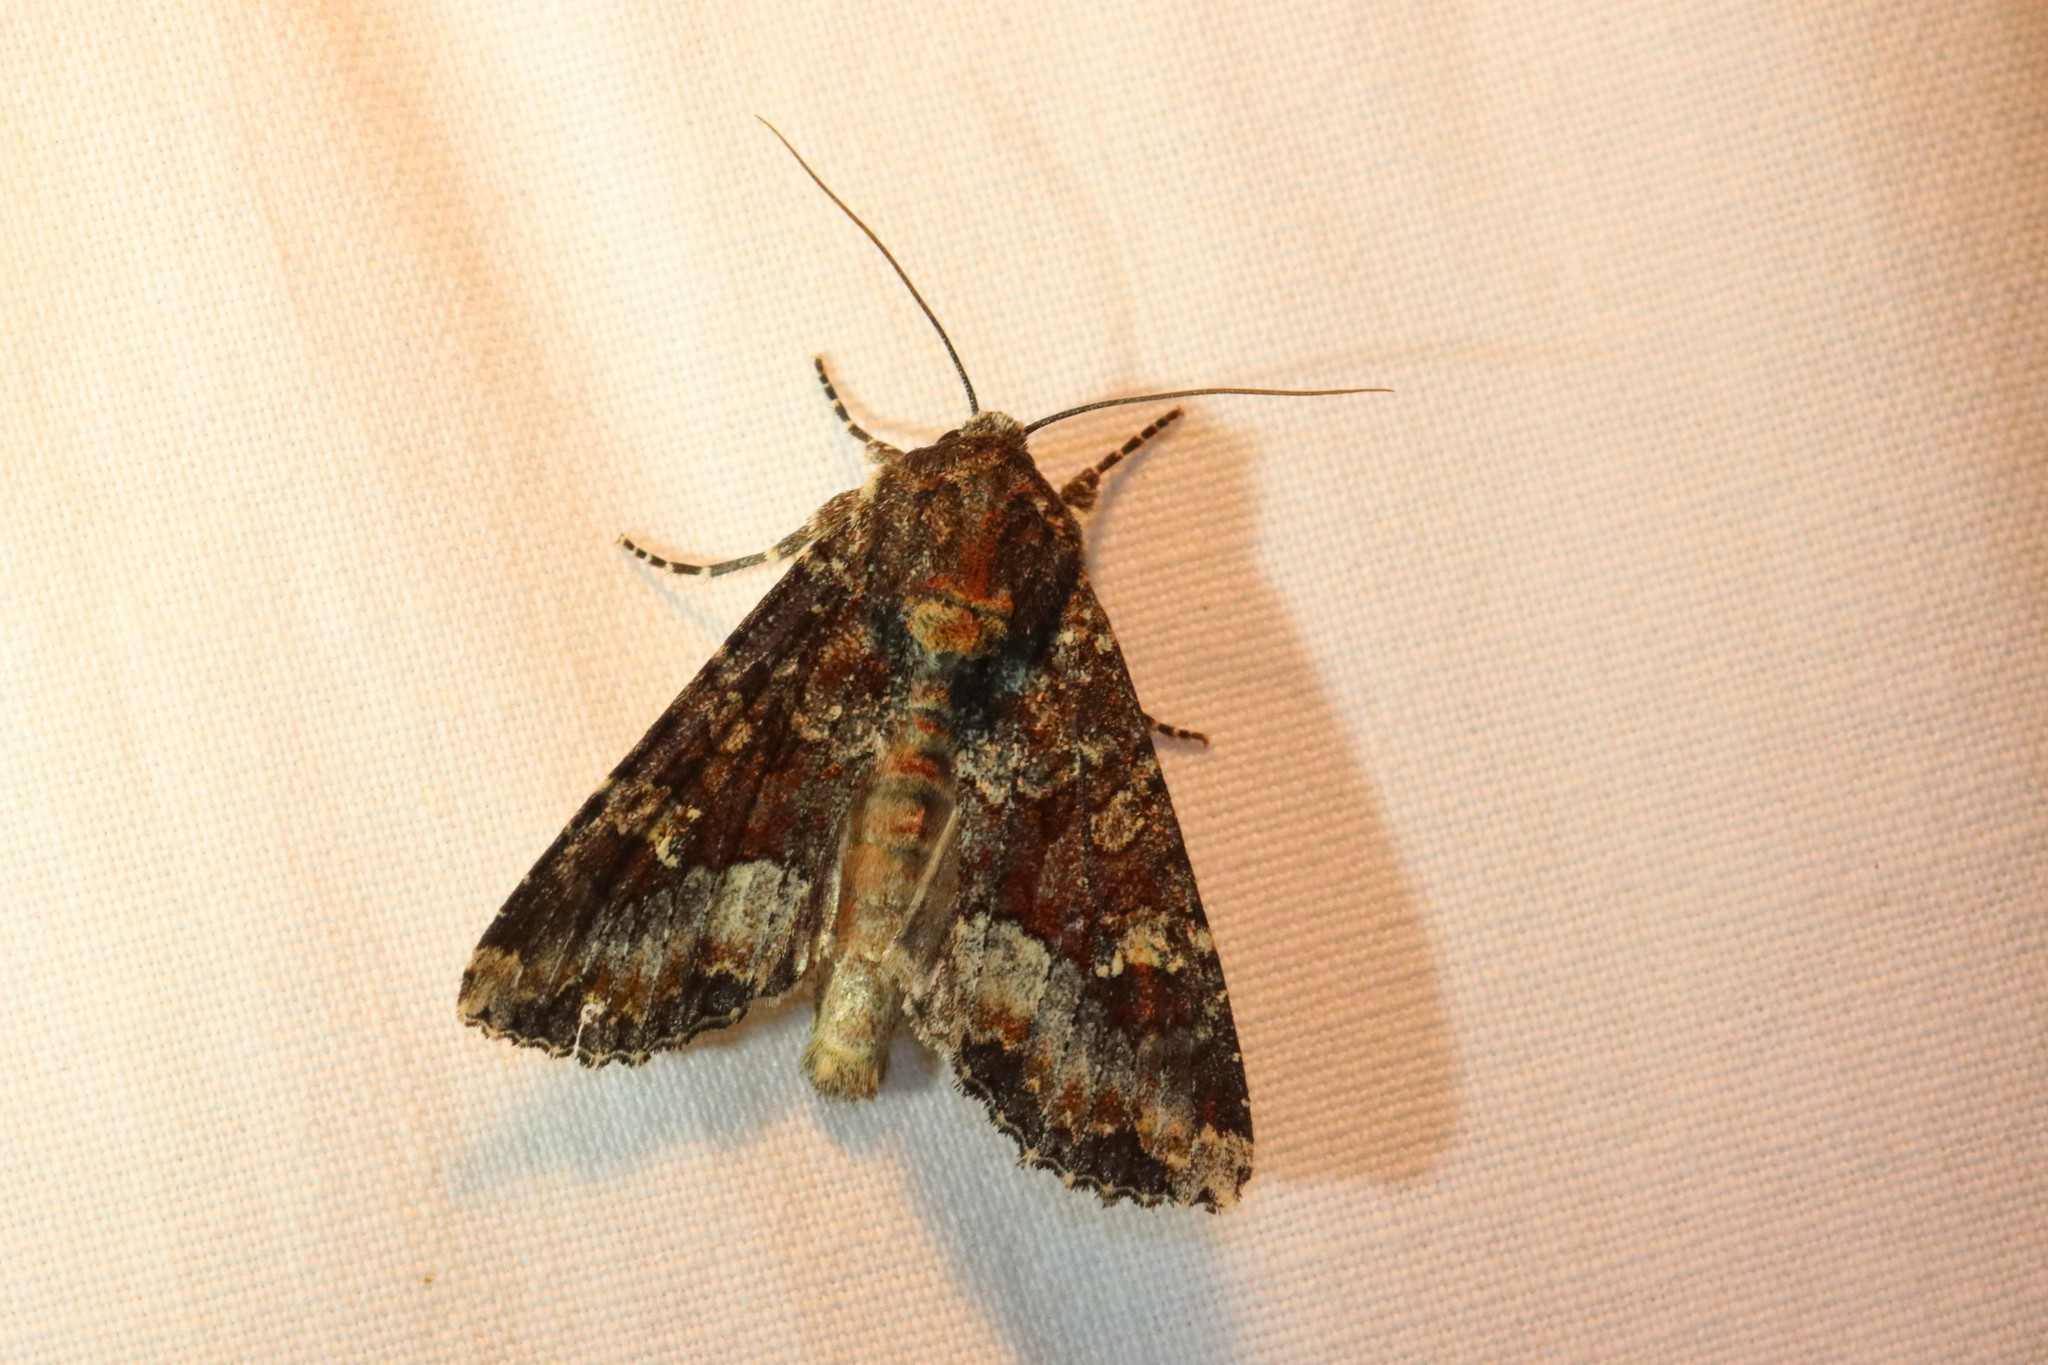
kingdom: Animalia
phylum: Arthropoda
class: Insecta
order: Lepidoptera
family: Noctuidae
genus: Apamea
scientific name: Apamea amputatrix
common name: Yellow-headed cutworm moth
